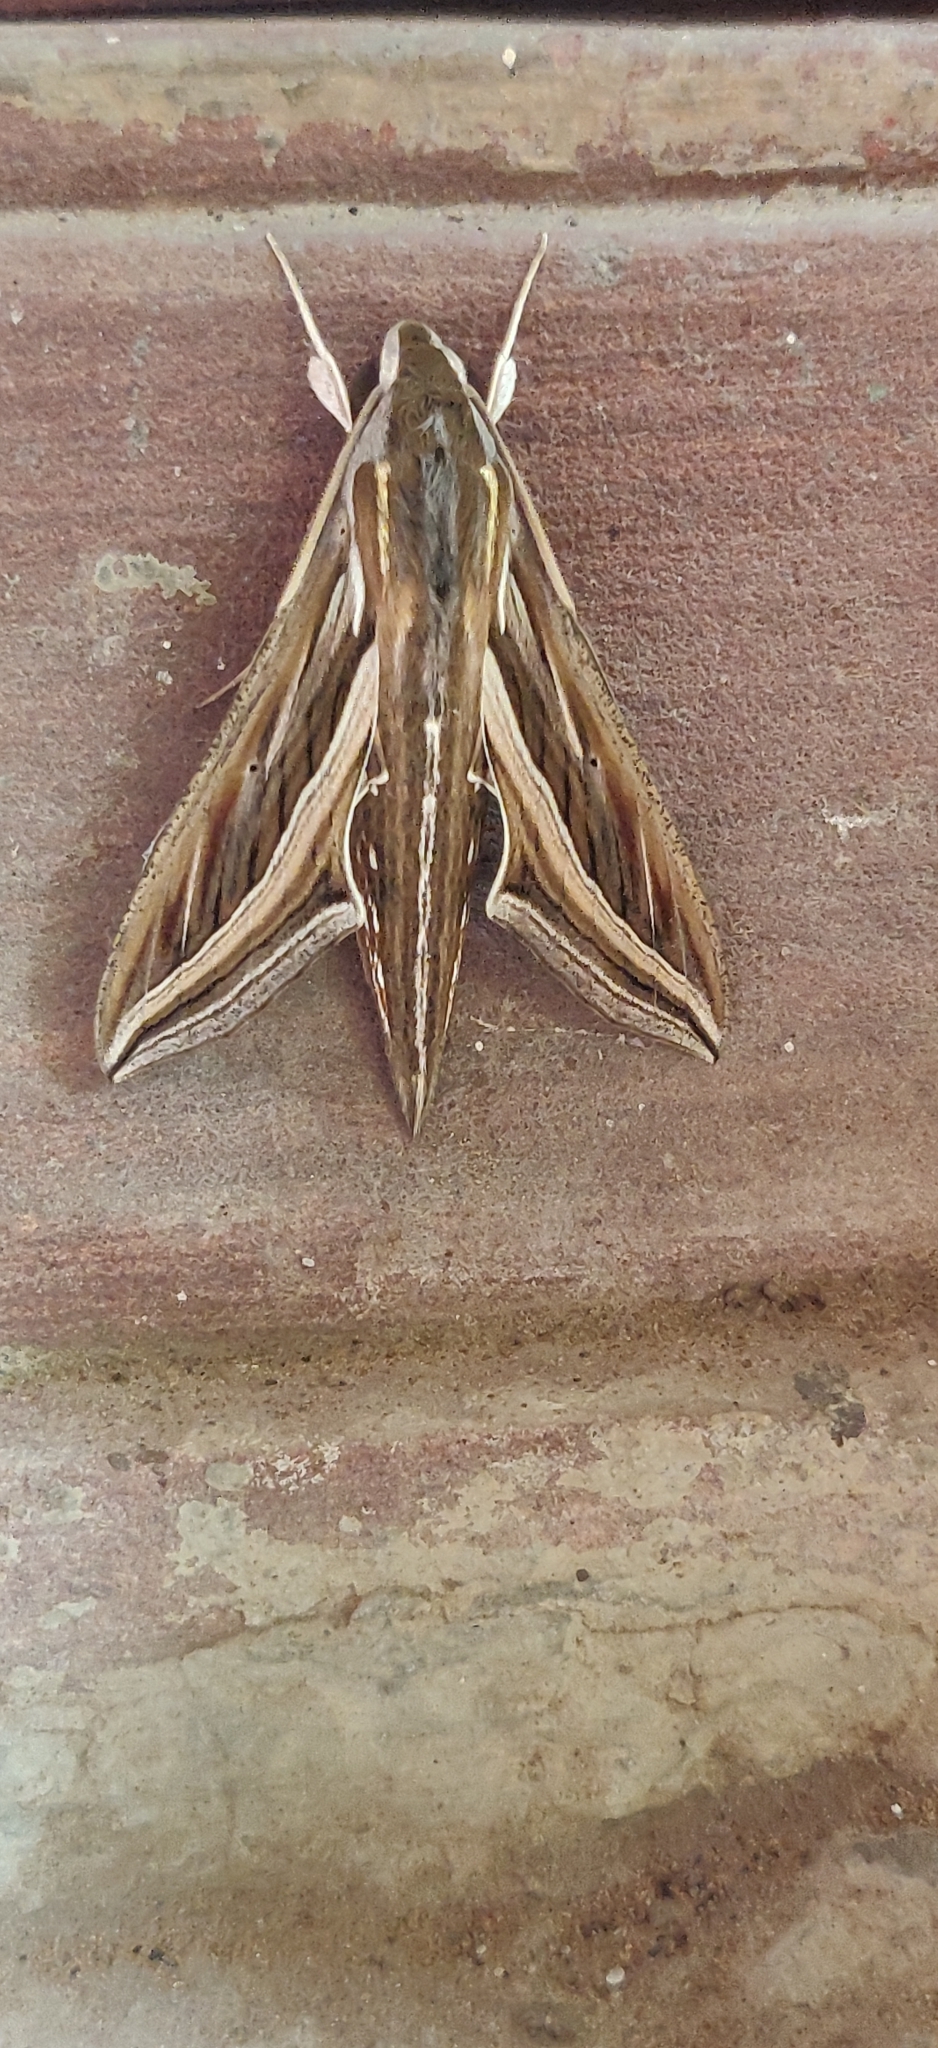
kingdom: Animalia
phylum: Arthropoda
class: Insecta
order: Lepidoptera
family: Sphingidae
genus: Hippotion
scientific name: Hippotion celerio
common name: Silver-striped hawk-moth
